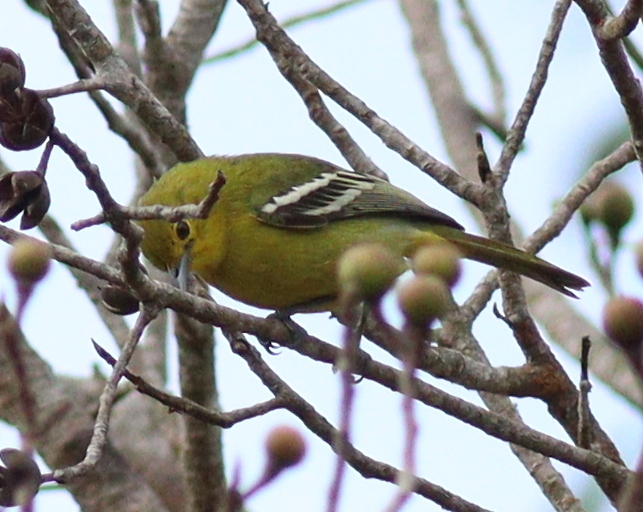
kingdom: Animalia
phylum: Chordata
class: Aves
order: Passeriformes
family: Aegithinidae
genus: Aegithina
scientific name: Aegithina tiphia
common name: Common iora
